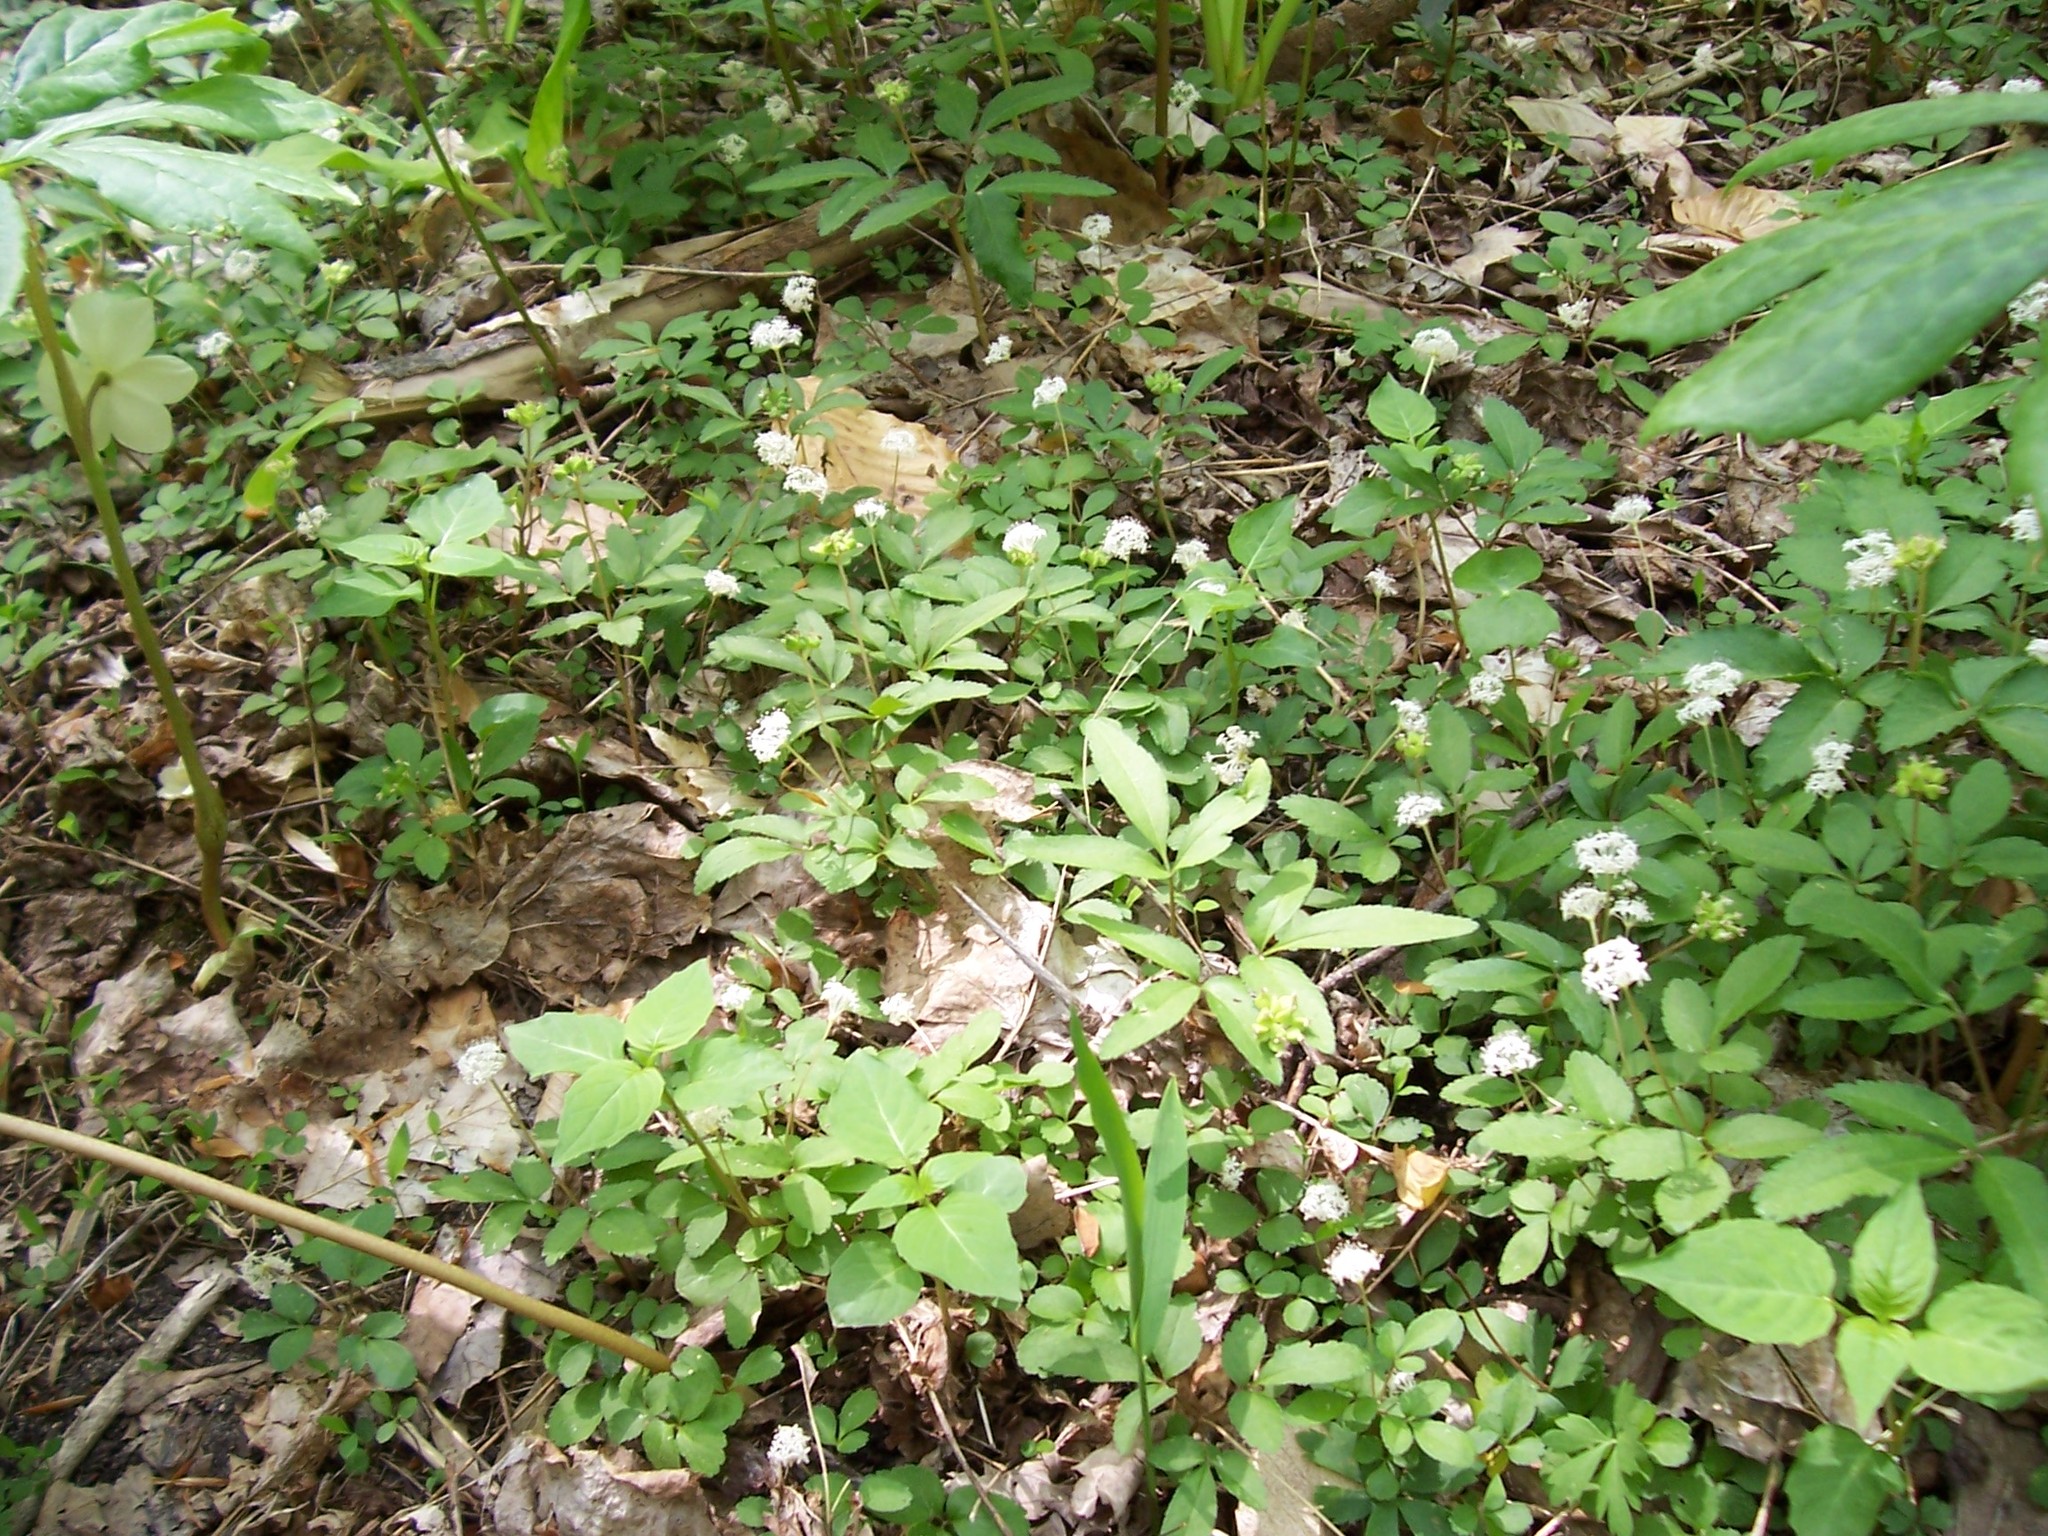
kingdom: Plantae
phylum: Tracheophyta
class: Magnoliopsida
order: Apiales
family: Araliaceae
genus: Panax
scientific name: Panax trifolius
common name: Dwarf ginseng
